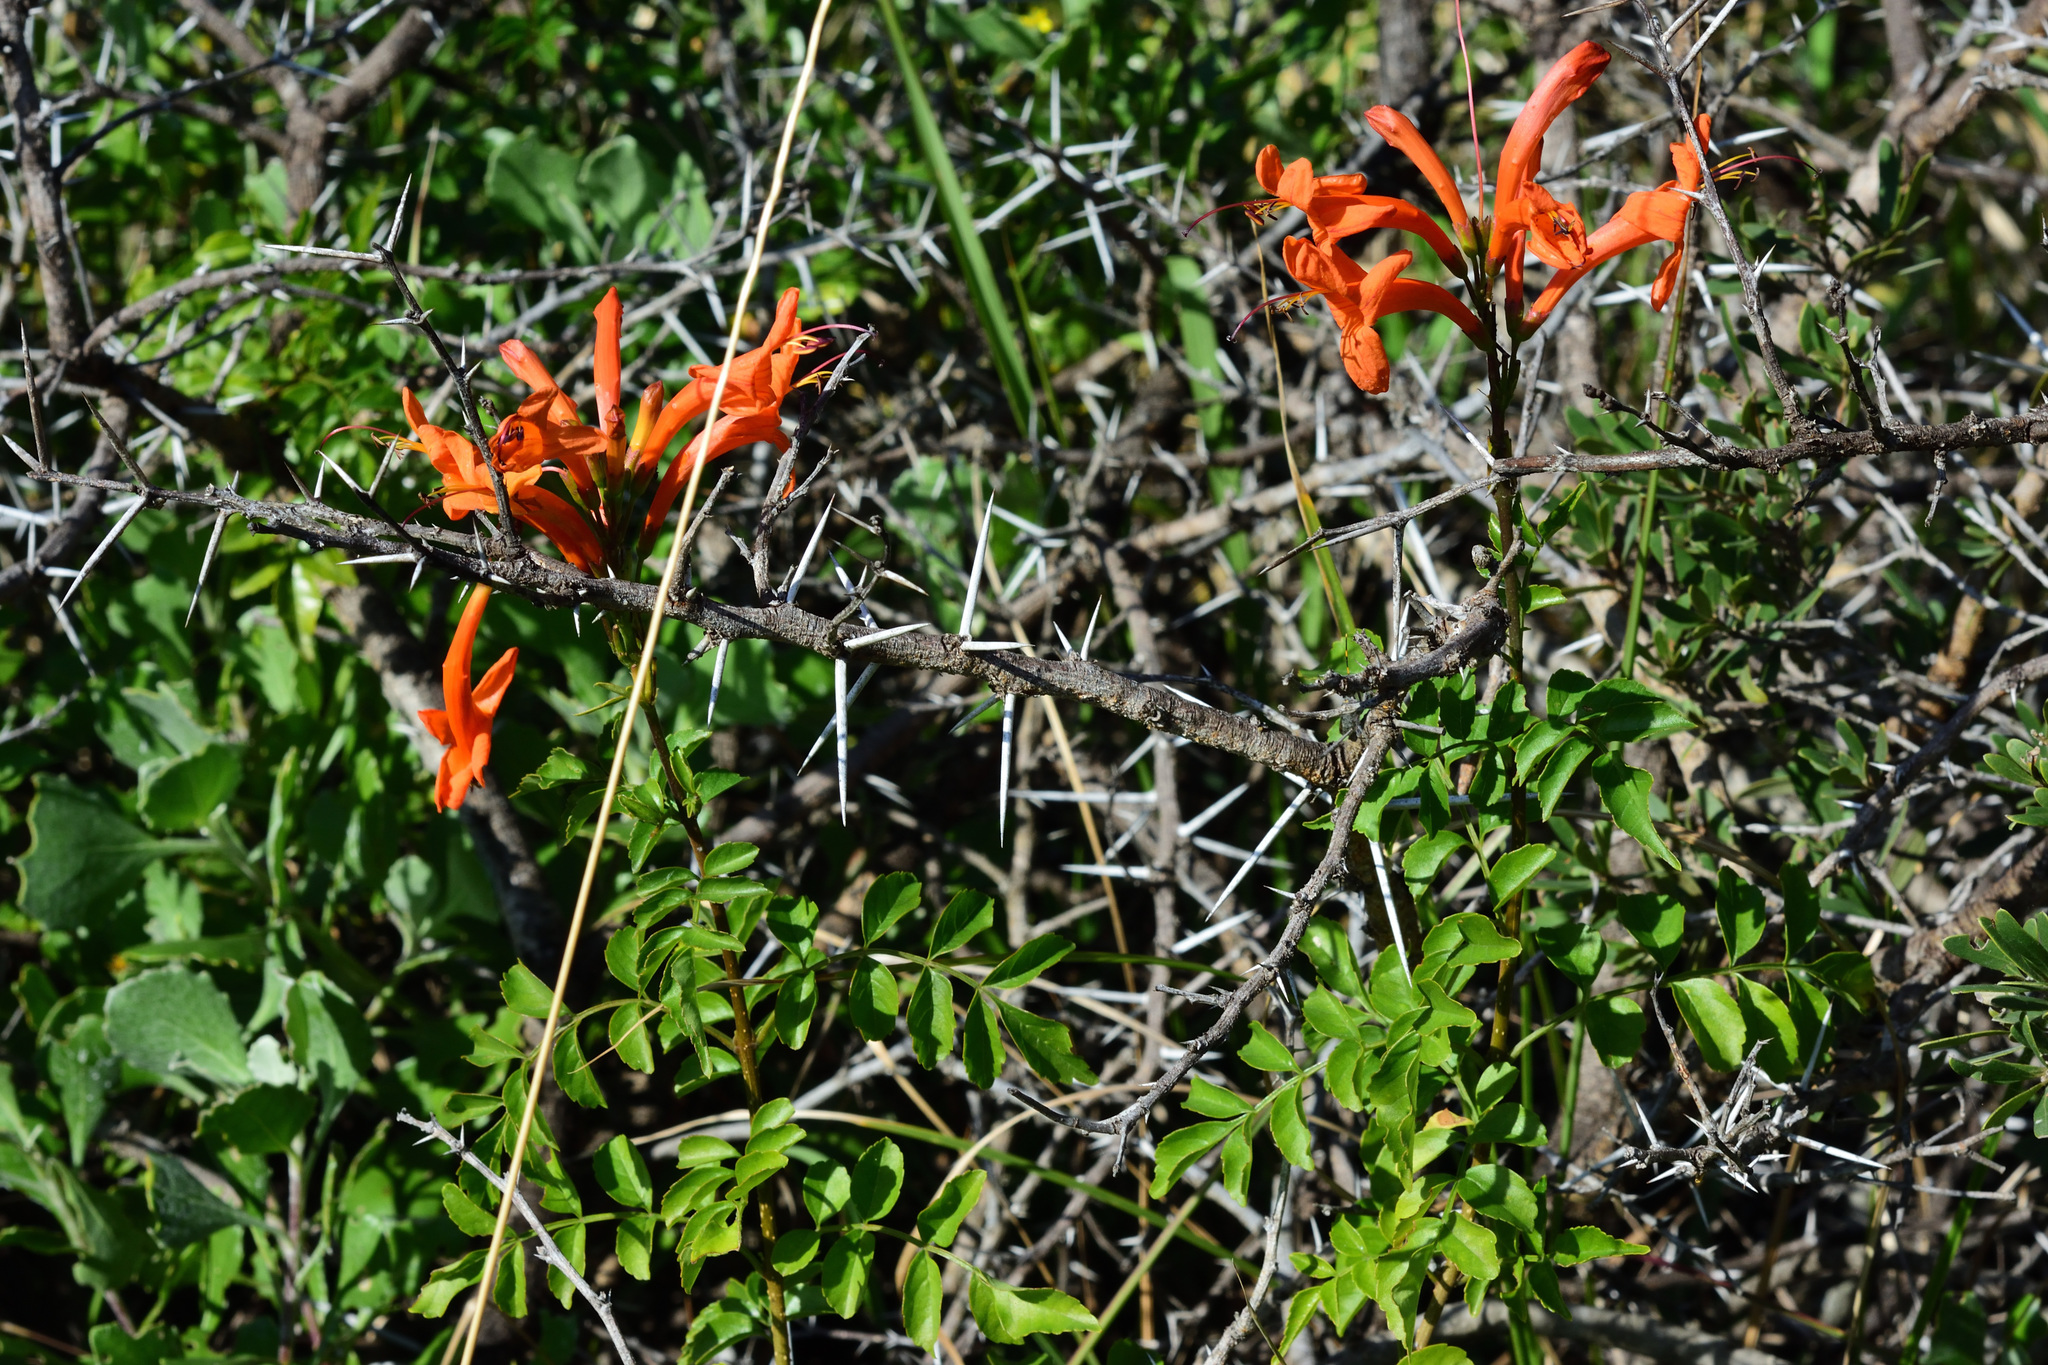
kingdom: Plantae
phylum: Tracheophyta
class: Magnoliopsida
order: Lamiales
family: Bignoniaceae
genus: Tecomaria
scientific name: Tecomaria capensis
